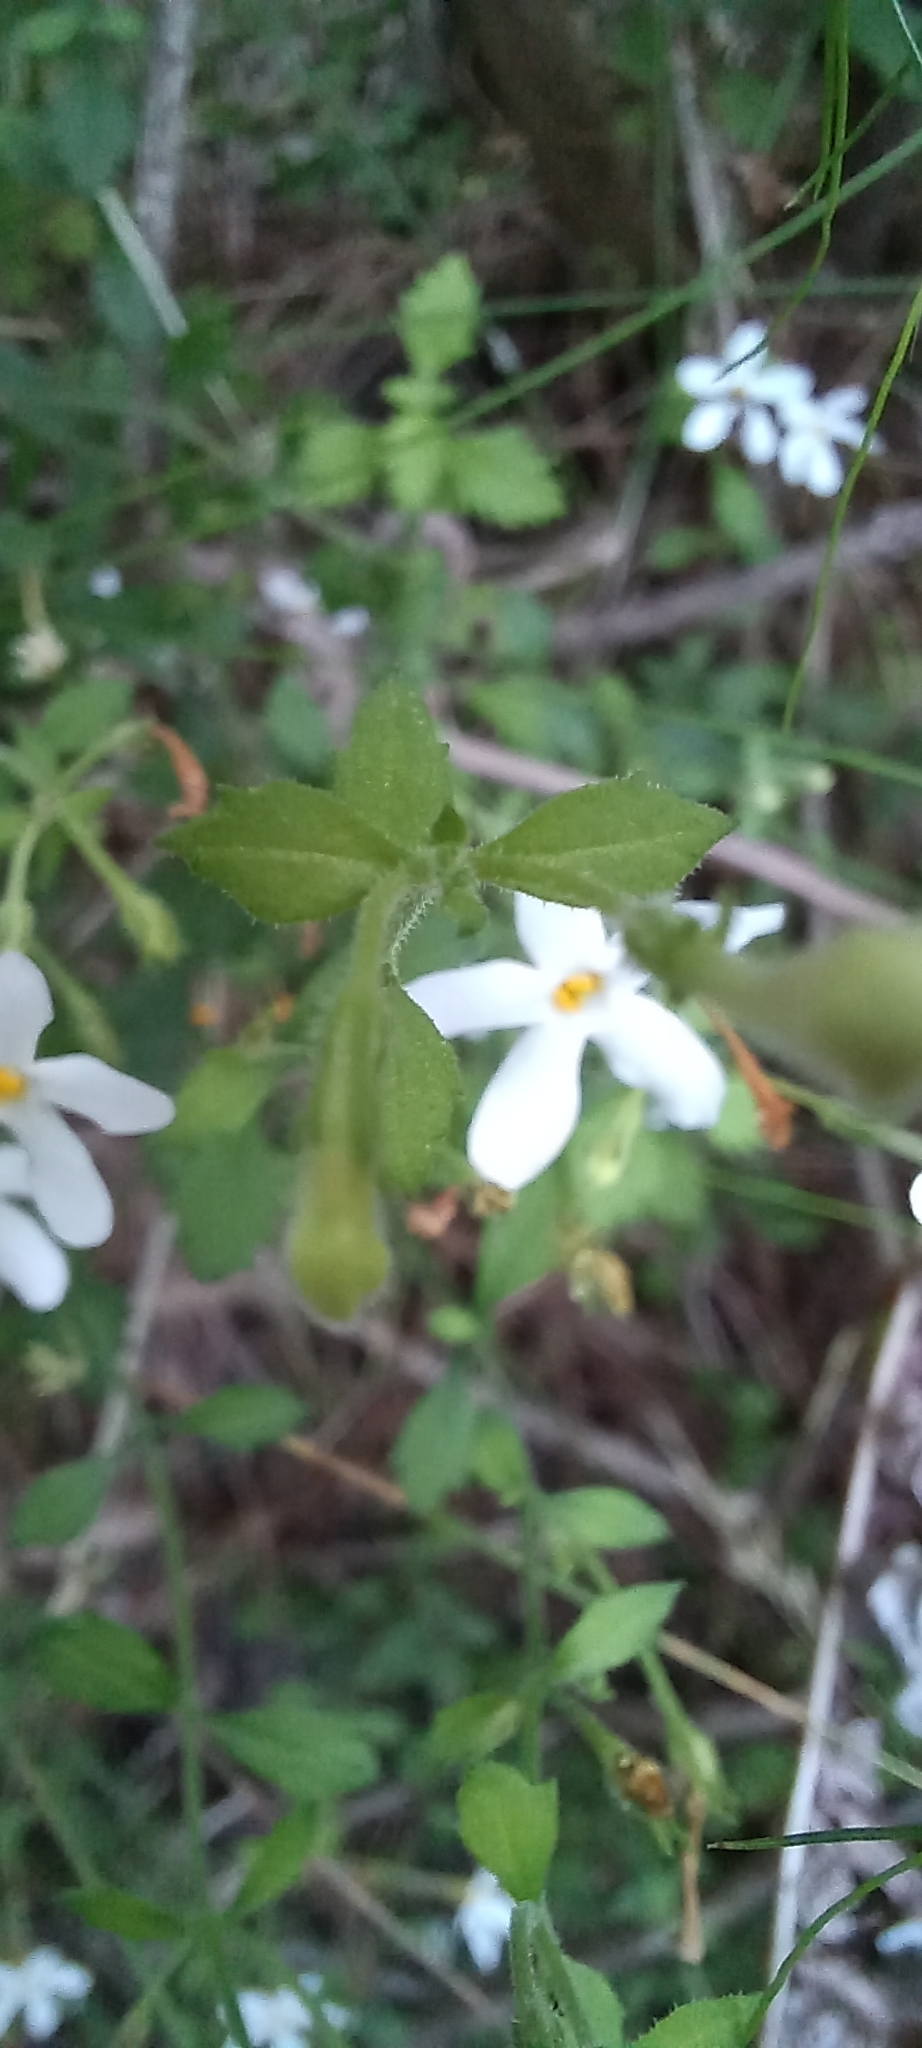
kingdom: Plantae
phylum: Tracheophyta
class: Magnoliopsida
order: Lamiales
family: Scrophulariaceae
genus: Chaenostoma
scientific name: Chaenostoma hispidum
